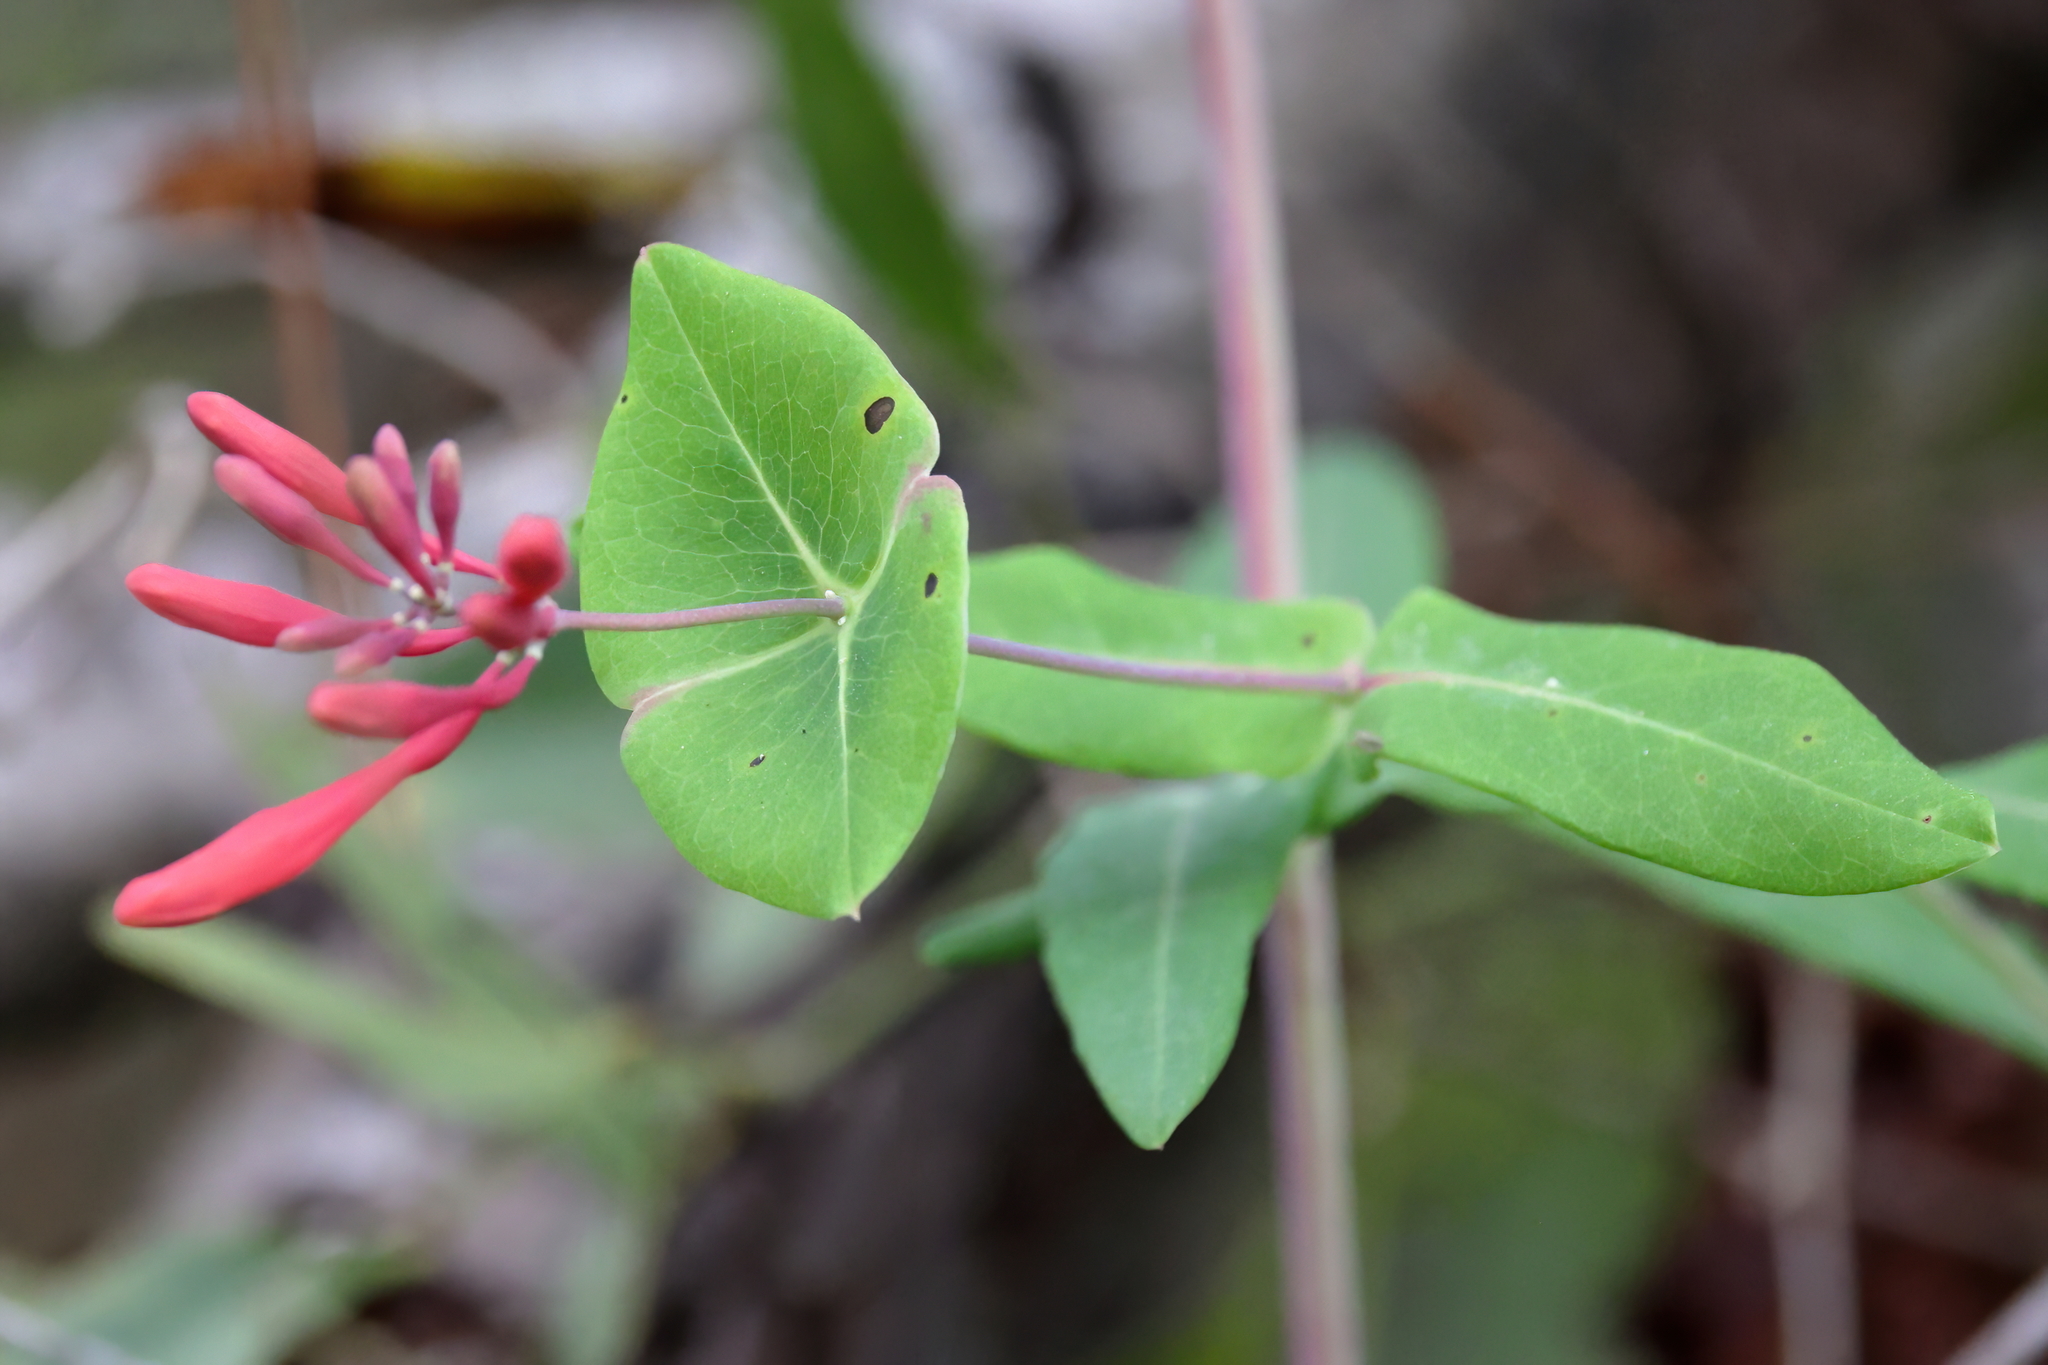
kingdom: Plantae
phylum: Tracheophyta
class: Magnoliopsida
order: Dipsacales
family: Caprifoliaceae
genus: Lonicera
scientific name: Lonicera sempervirens
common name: Coral honeysuckle
